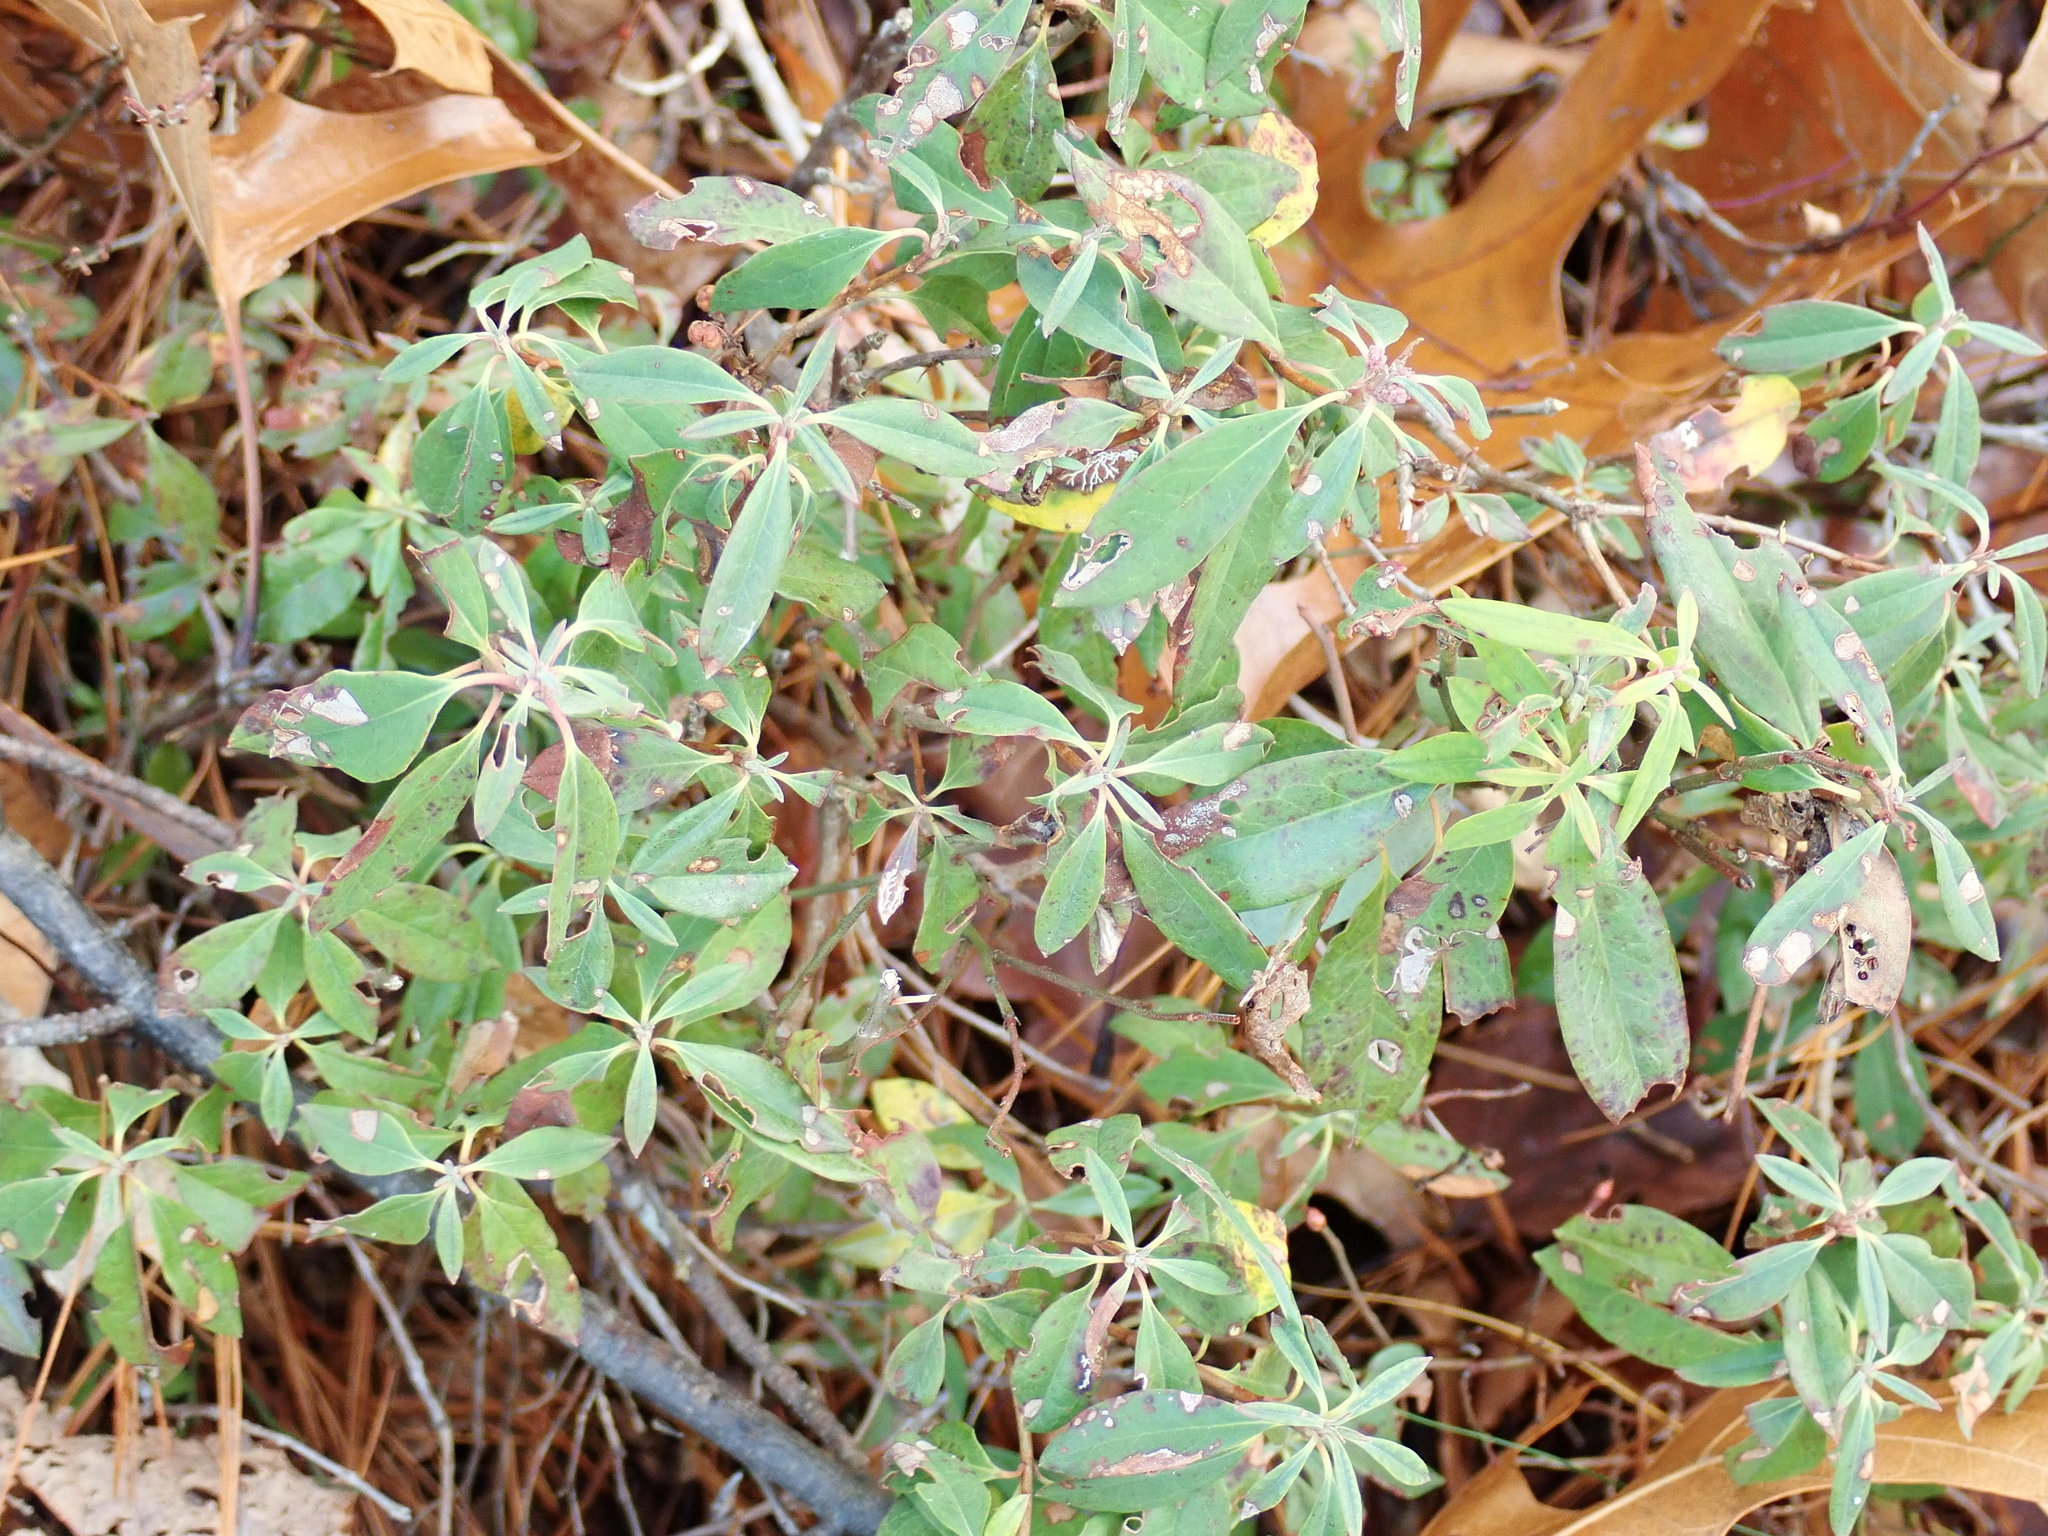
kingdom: Plantae
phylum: Tracheophyta
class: Magnoliopsida
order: Ericales
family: Ericaceae
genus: Kalmia
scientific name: Kalmia angustifolia
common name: Sheep-laurel
